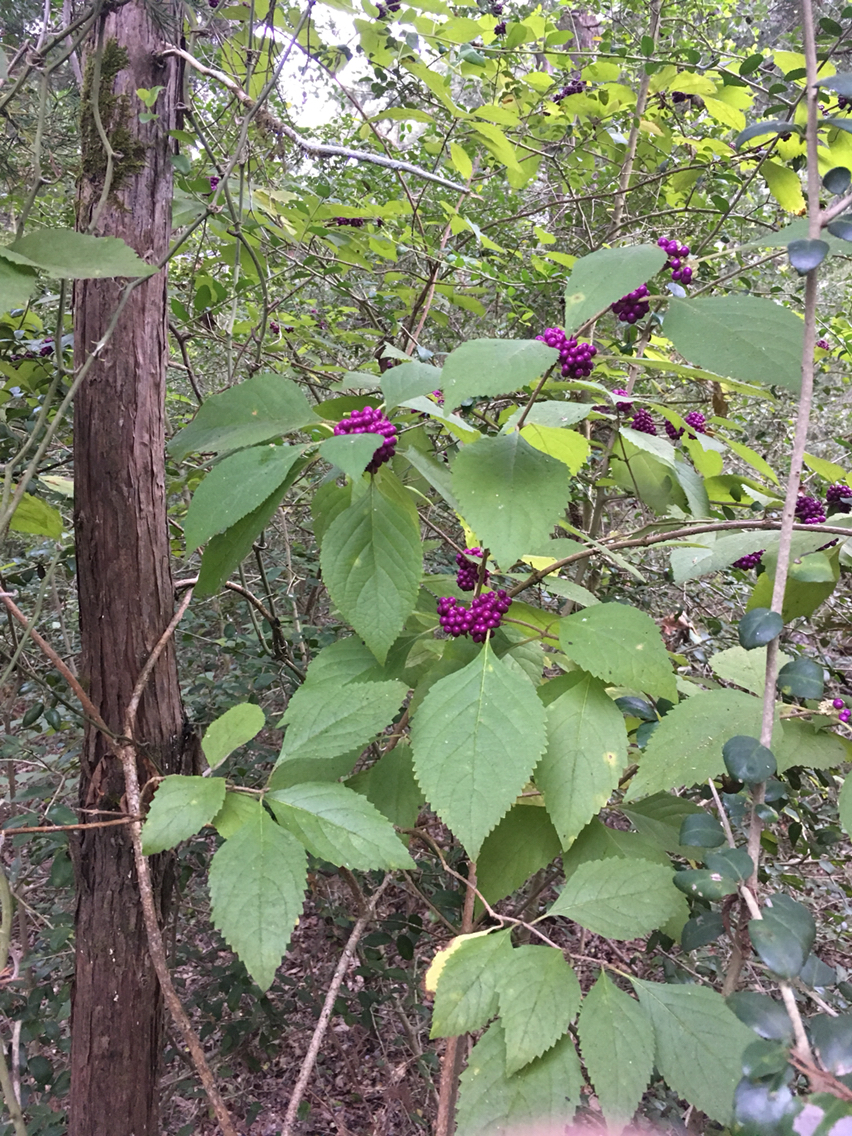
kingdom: Plantae
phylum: Tracheophyta
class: Magnoliopsida
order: Lamiales
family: Lamiaceae
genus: Callicarpa
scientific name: Callicarpa americana
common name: American beautyberry
